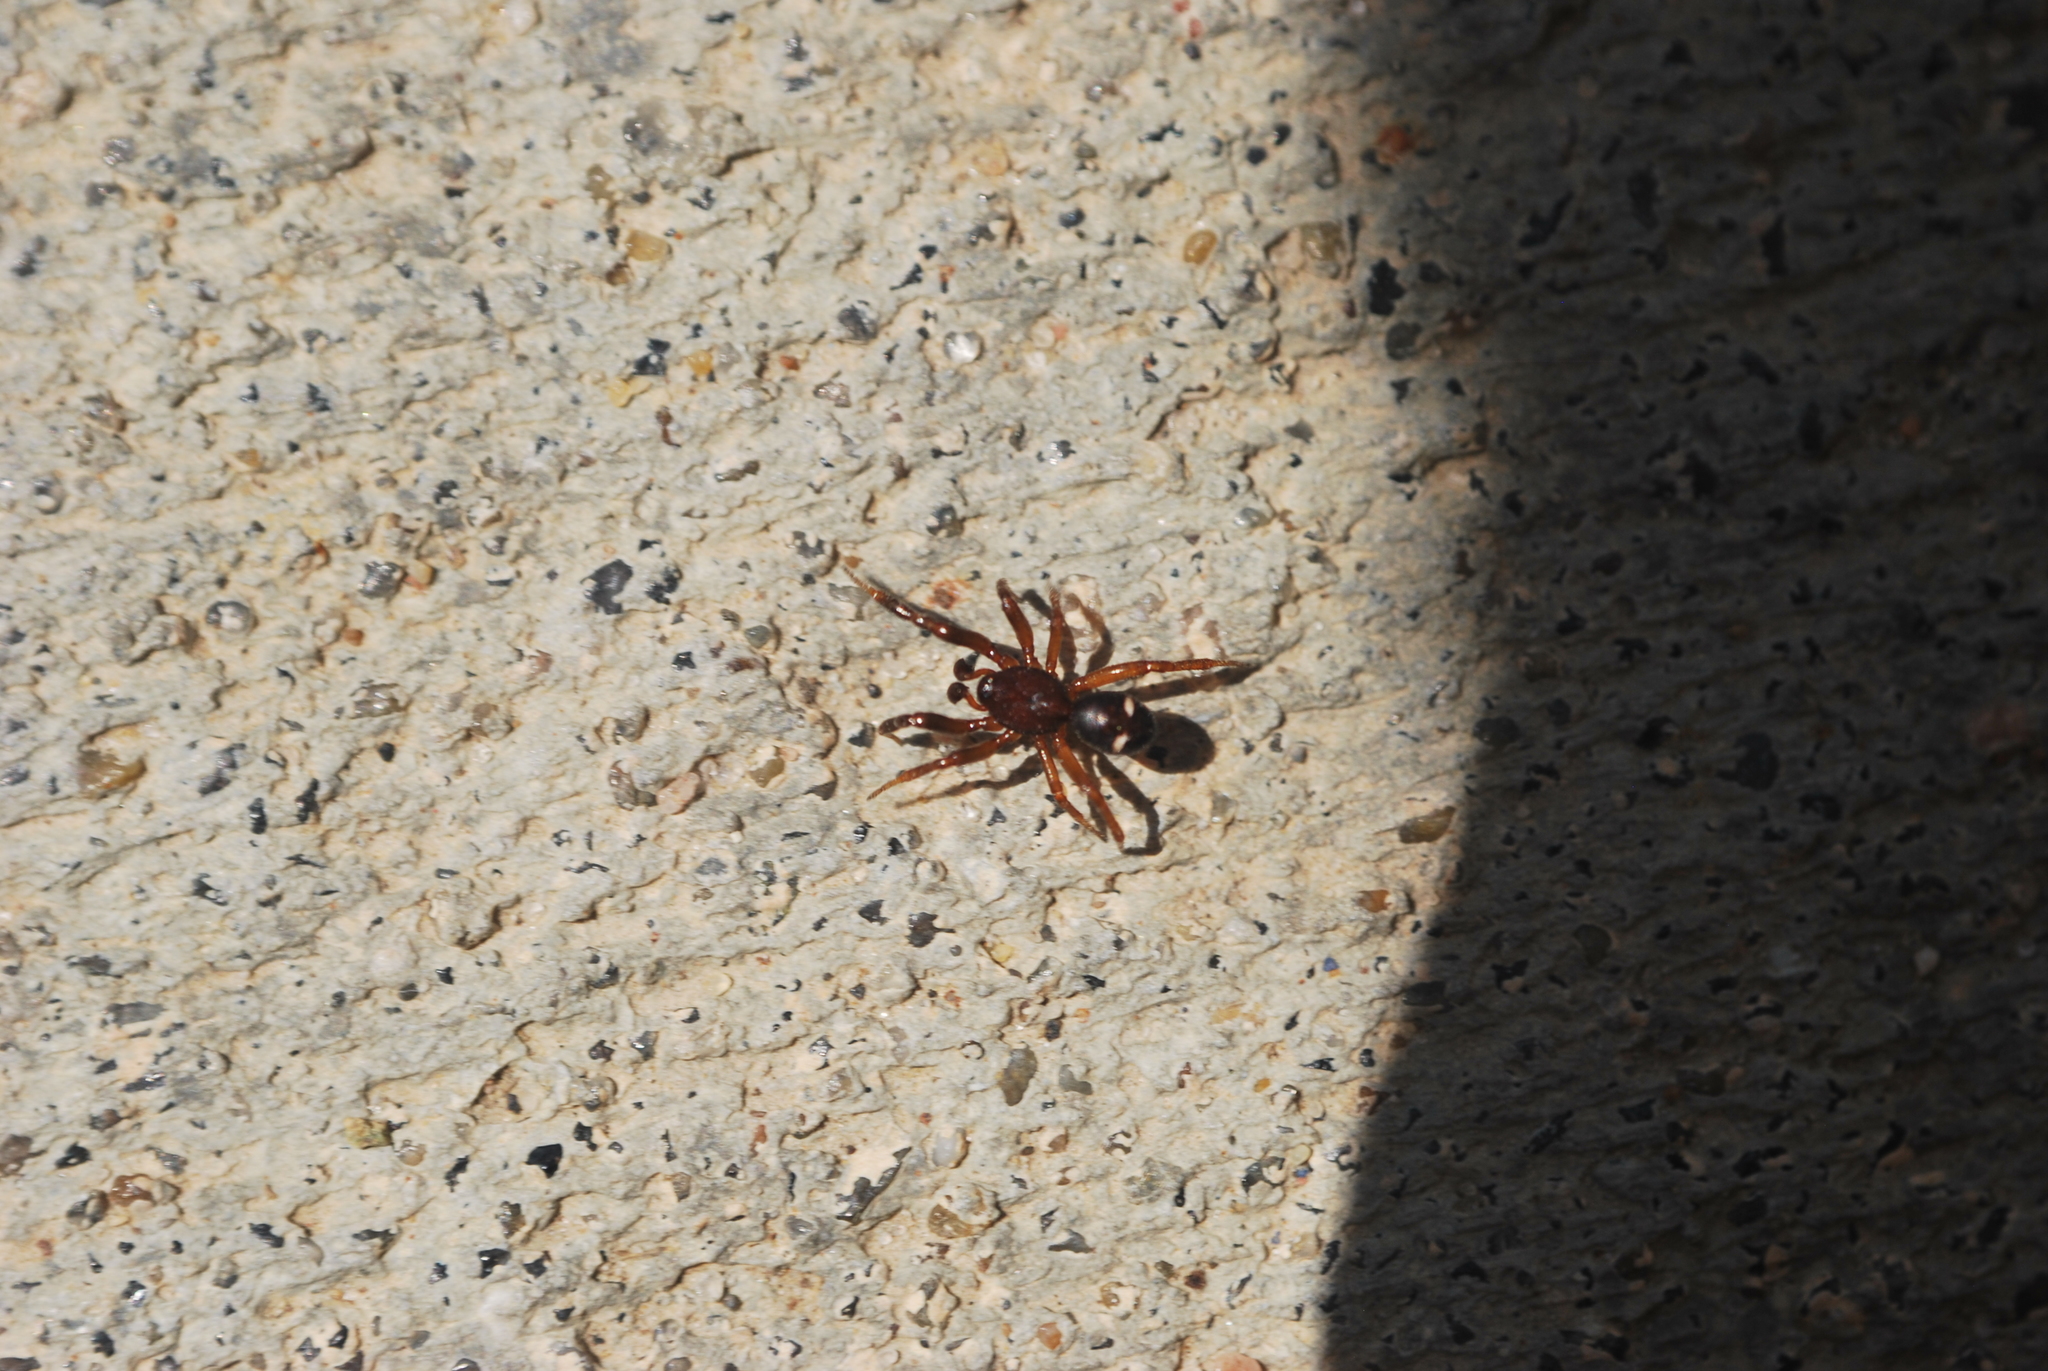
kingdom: Animalia
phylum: Arthropoda
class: Arachnida
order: Araneae
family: Theridiidae
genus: Asagena
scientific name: Asagena americana
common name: Two-spotted cobweb spider
